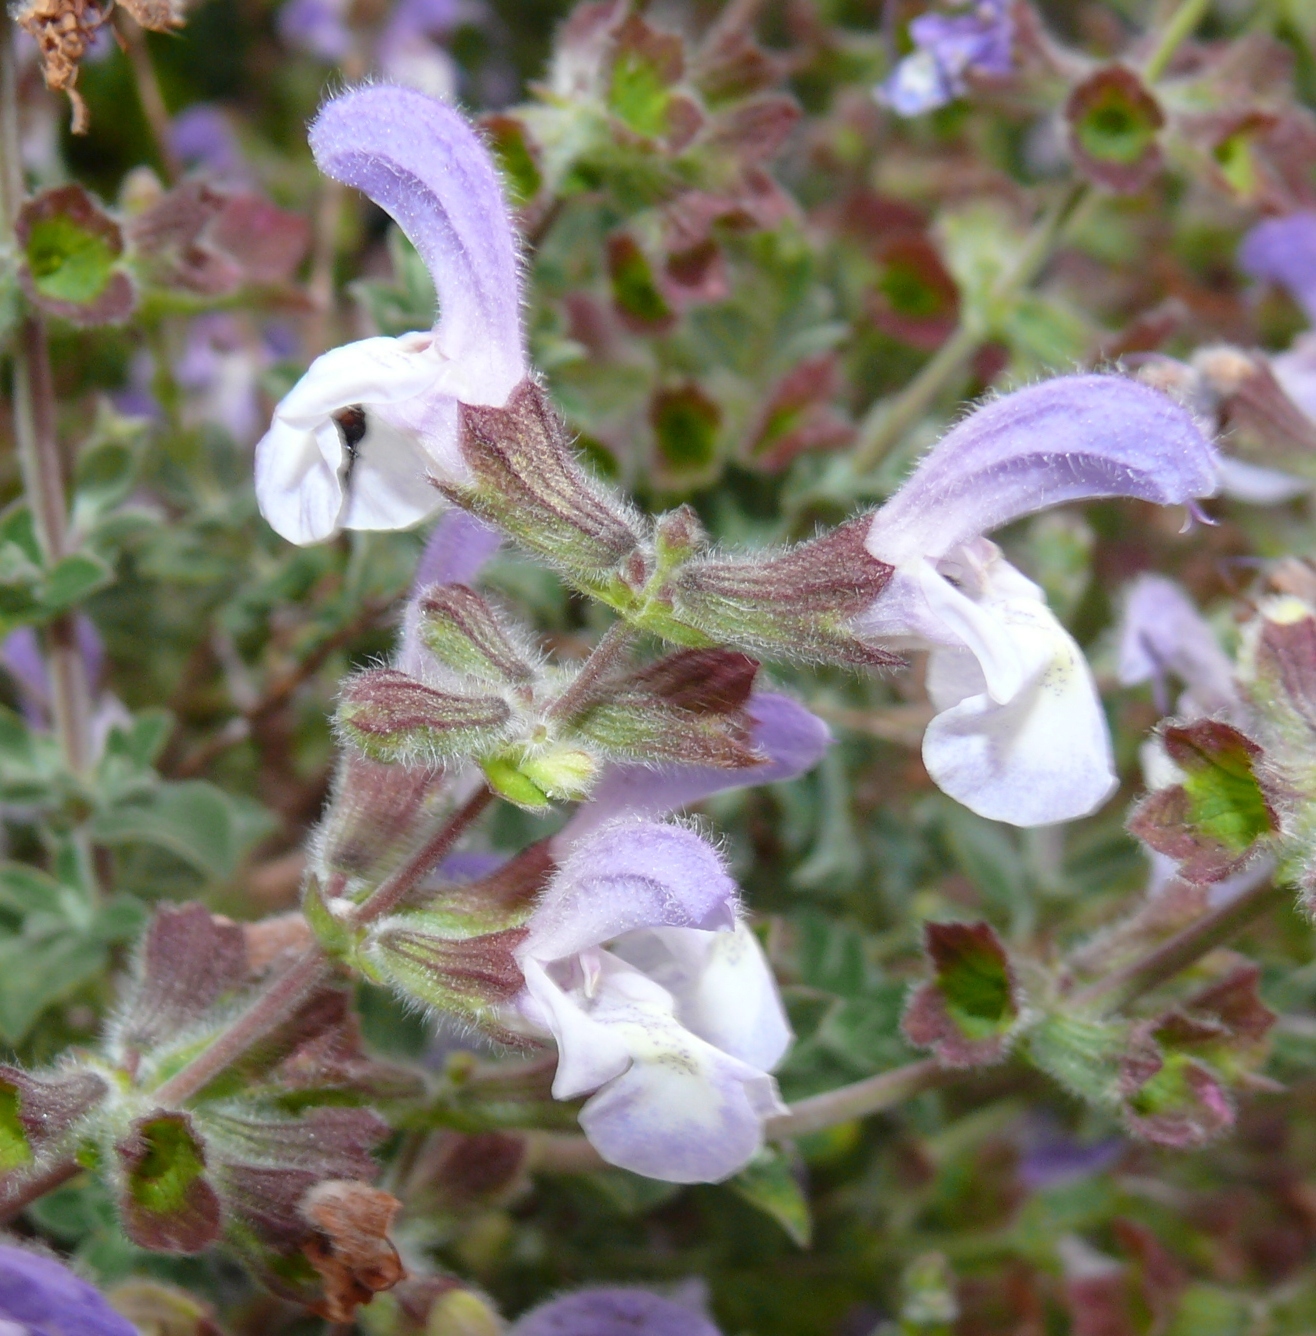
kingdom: Plantae
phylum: Tracheophyta
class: Magnoliopsida
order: Lamiales
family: Lamiaceae
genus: Salvia
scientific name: Salvia chamelaeagnea
